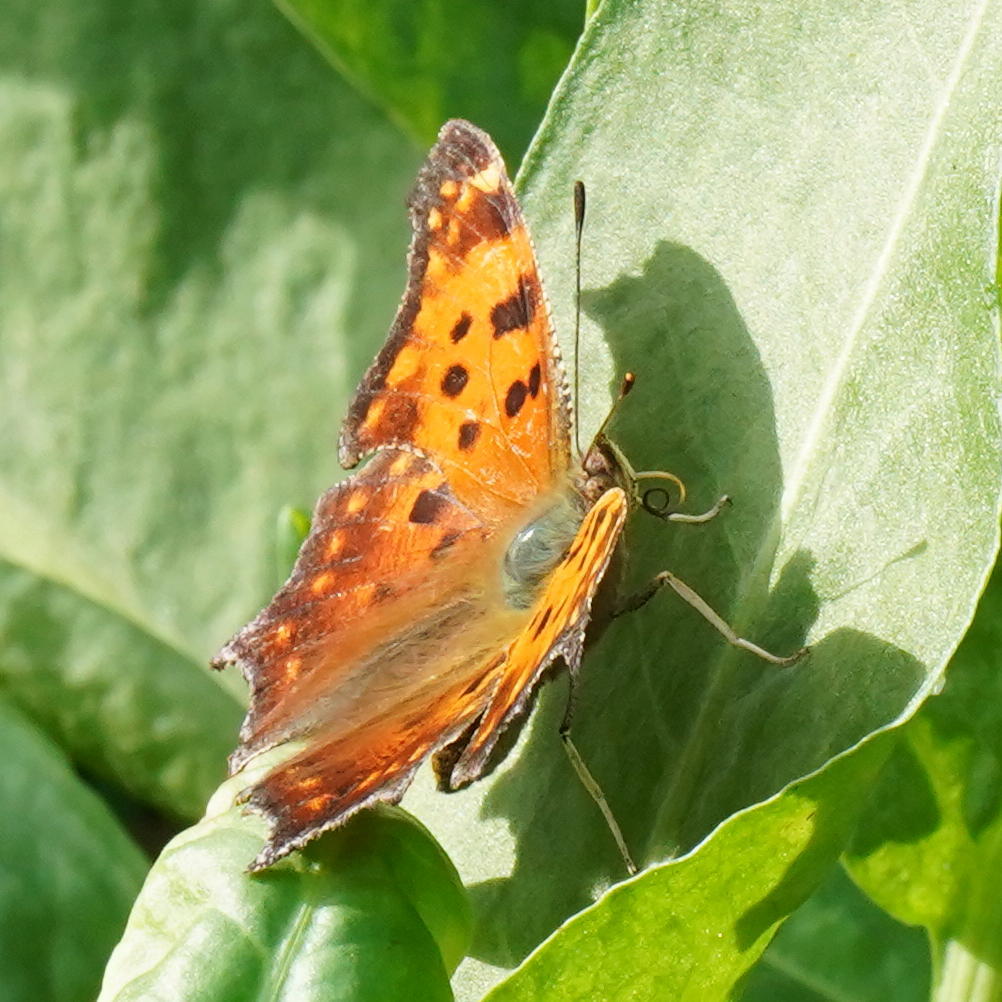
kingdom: Animalia
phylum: Arthropoda
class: Insecta
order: Lepidoptera
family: Nymphalidae
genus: Polygonia
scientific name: Polygonia comma
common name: Eastern comma
